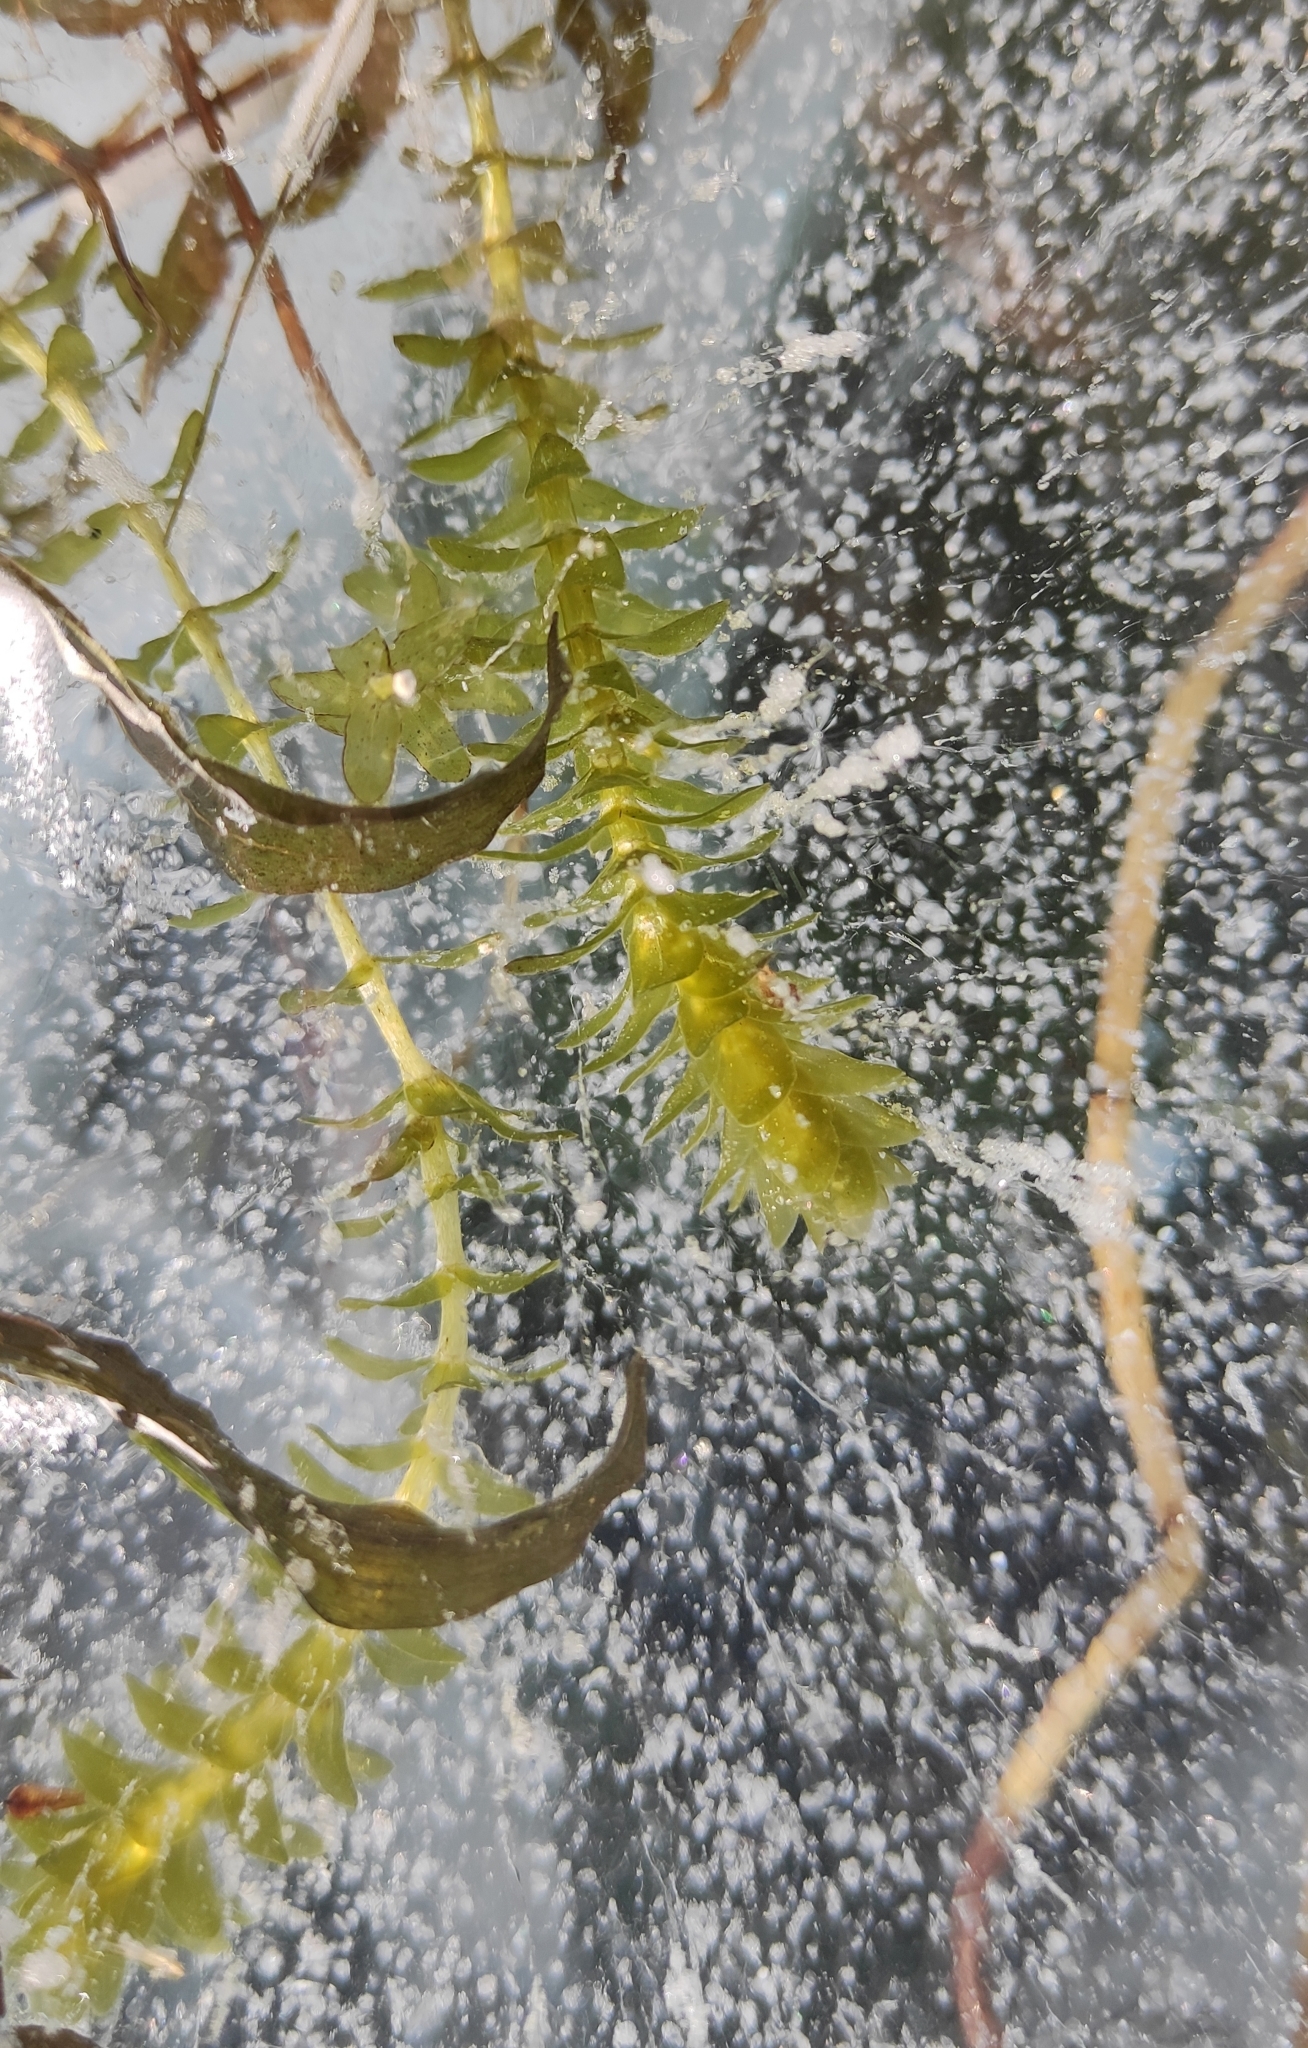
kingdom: Plantae
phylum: Tracheophyta
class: Liliopsida
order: Alismatales
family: Hydrocharitaceae
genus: Elodea
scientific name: Elodea canadensis
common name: Canadian waterweed
